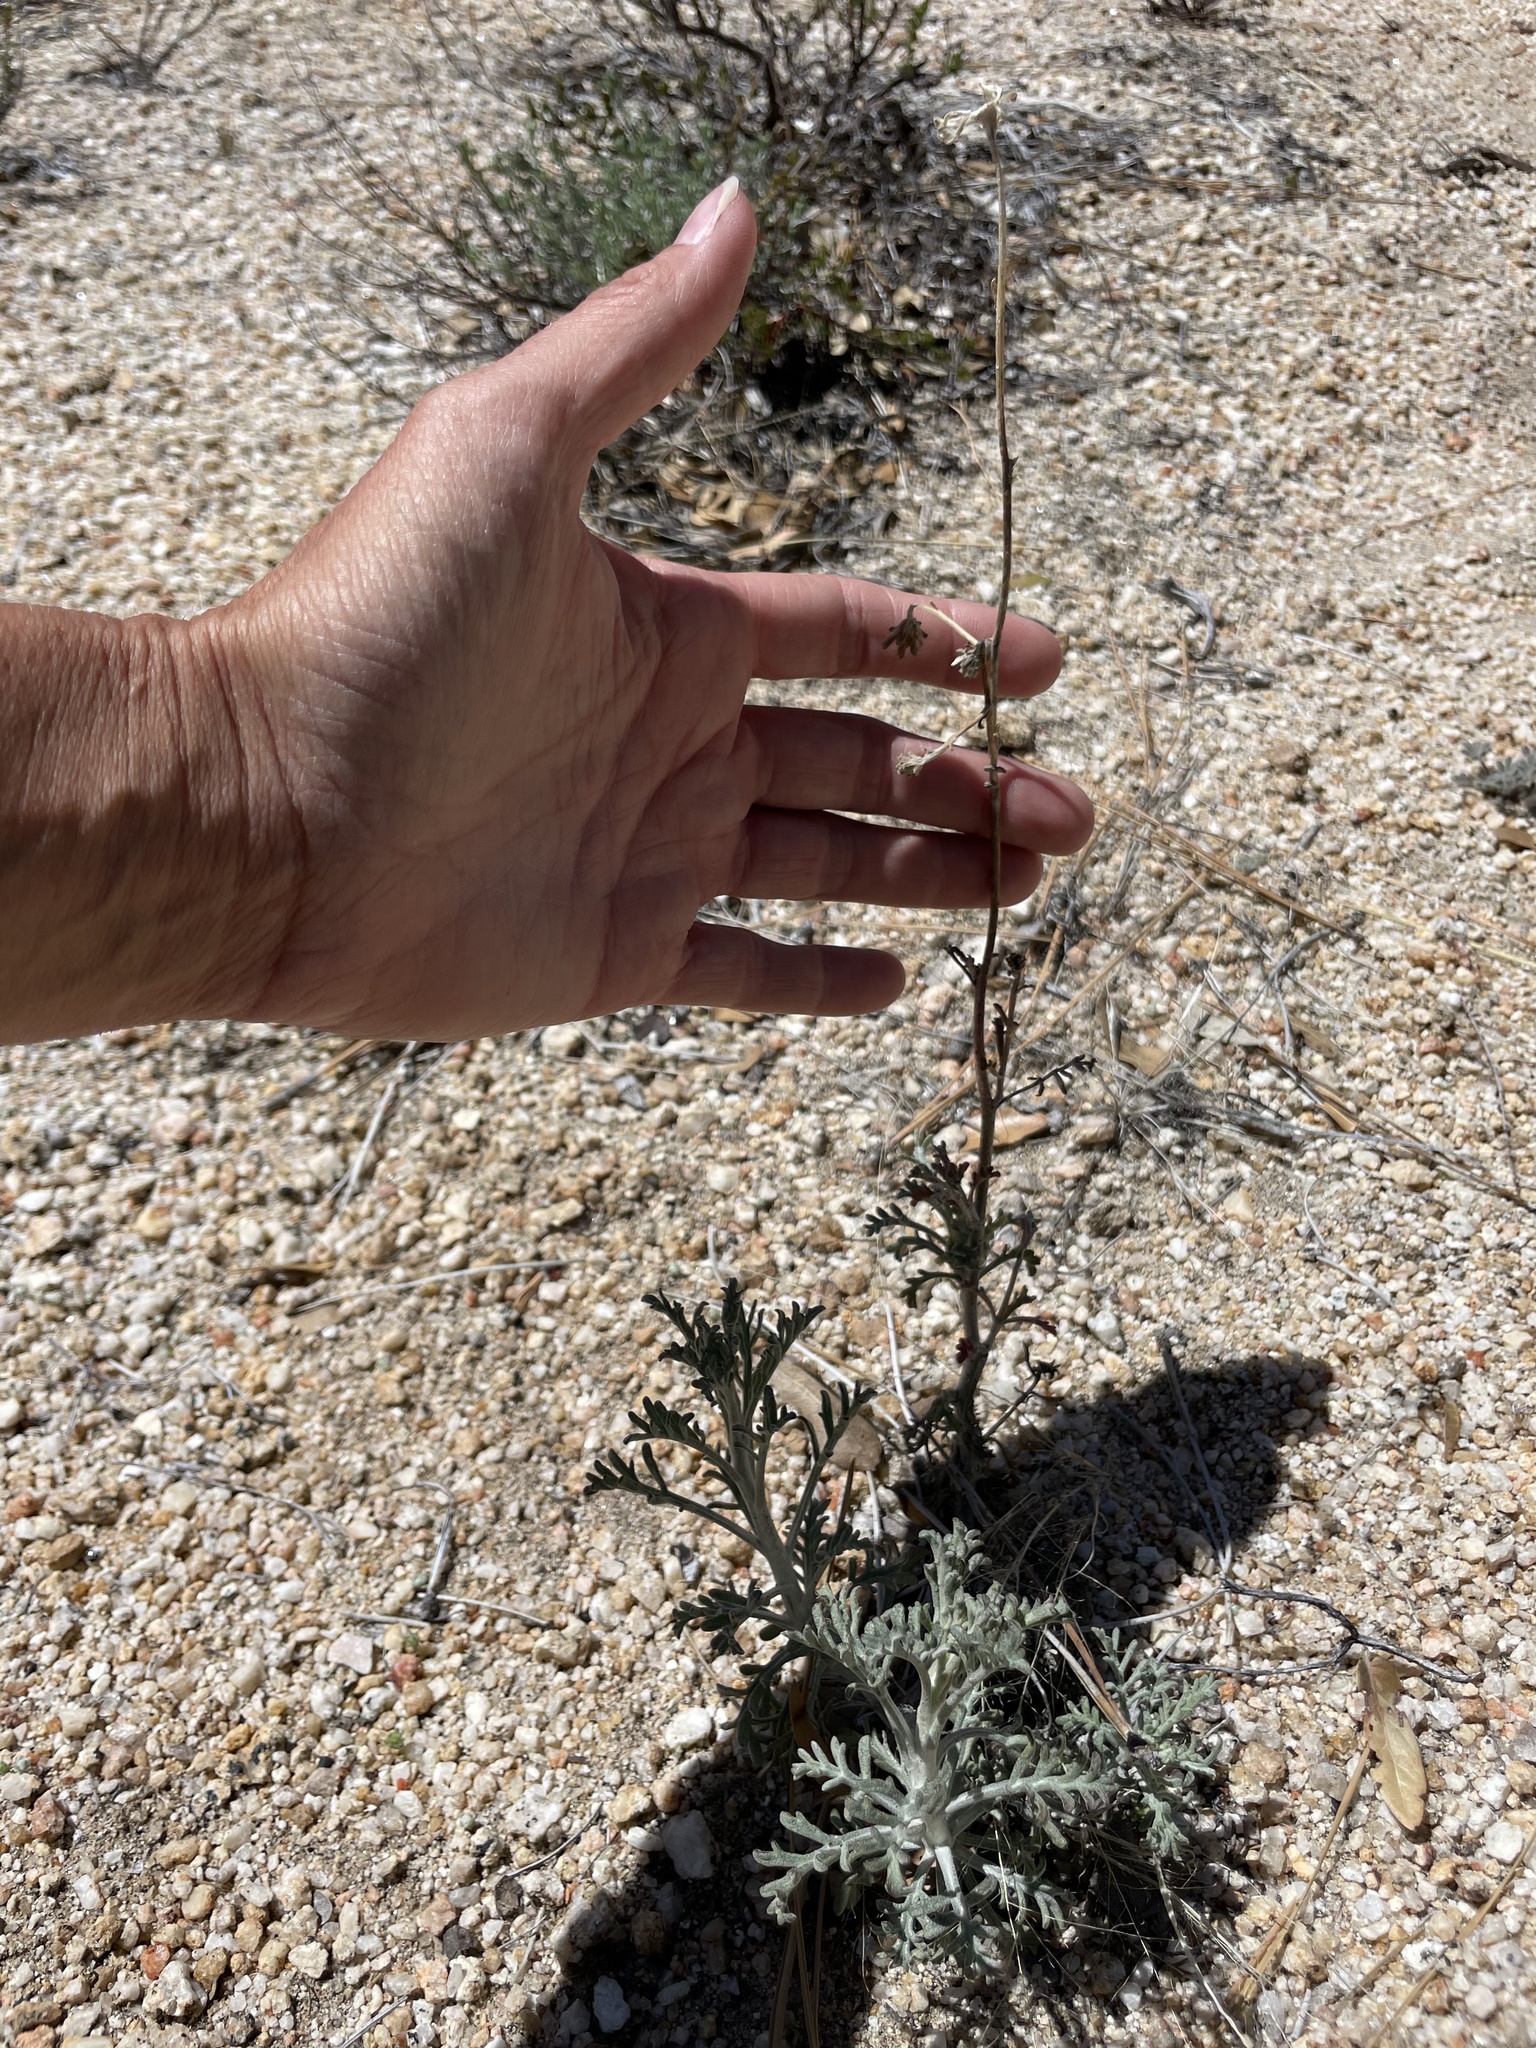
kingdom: Plantae
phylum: Tracheophyta
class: Magnoliopsida
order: Asterales
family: Asteraceae
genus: Chaenactis
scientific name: Chaenactis parishii
